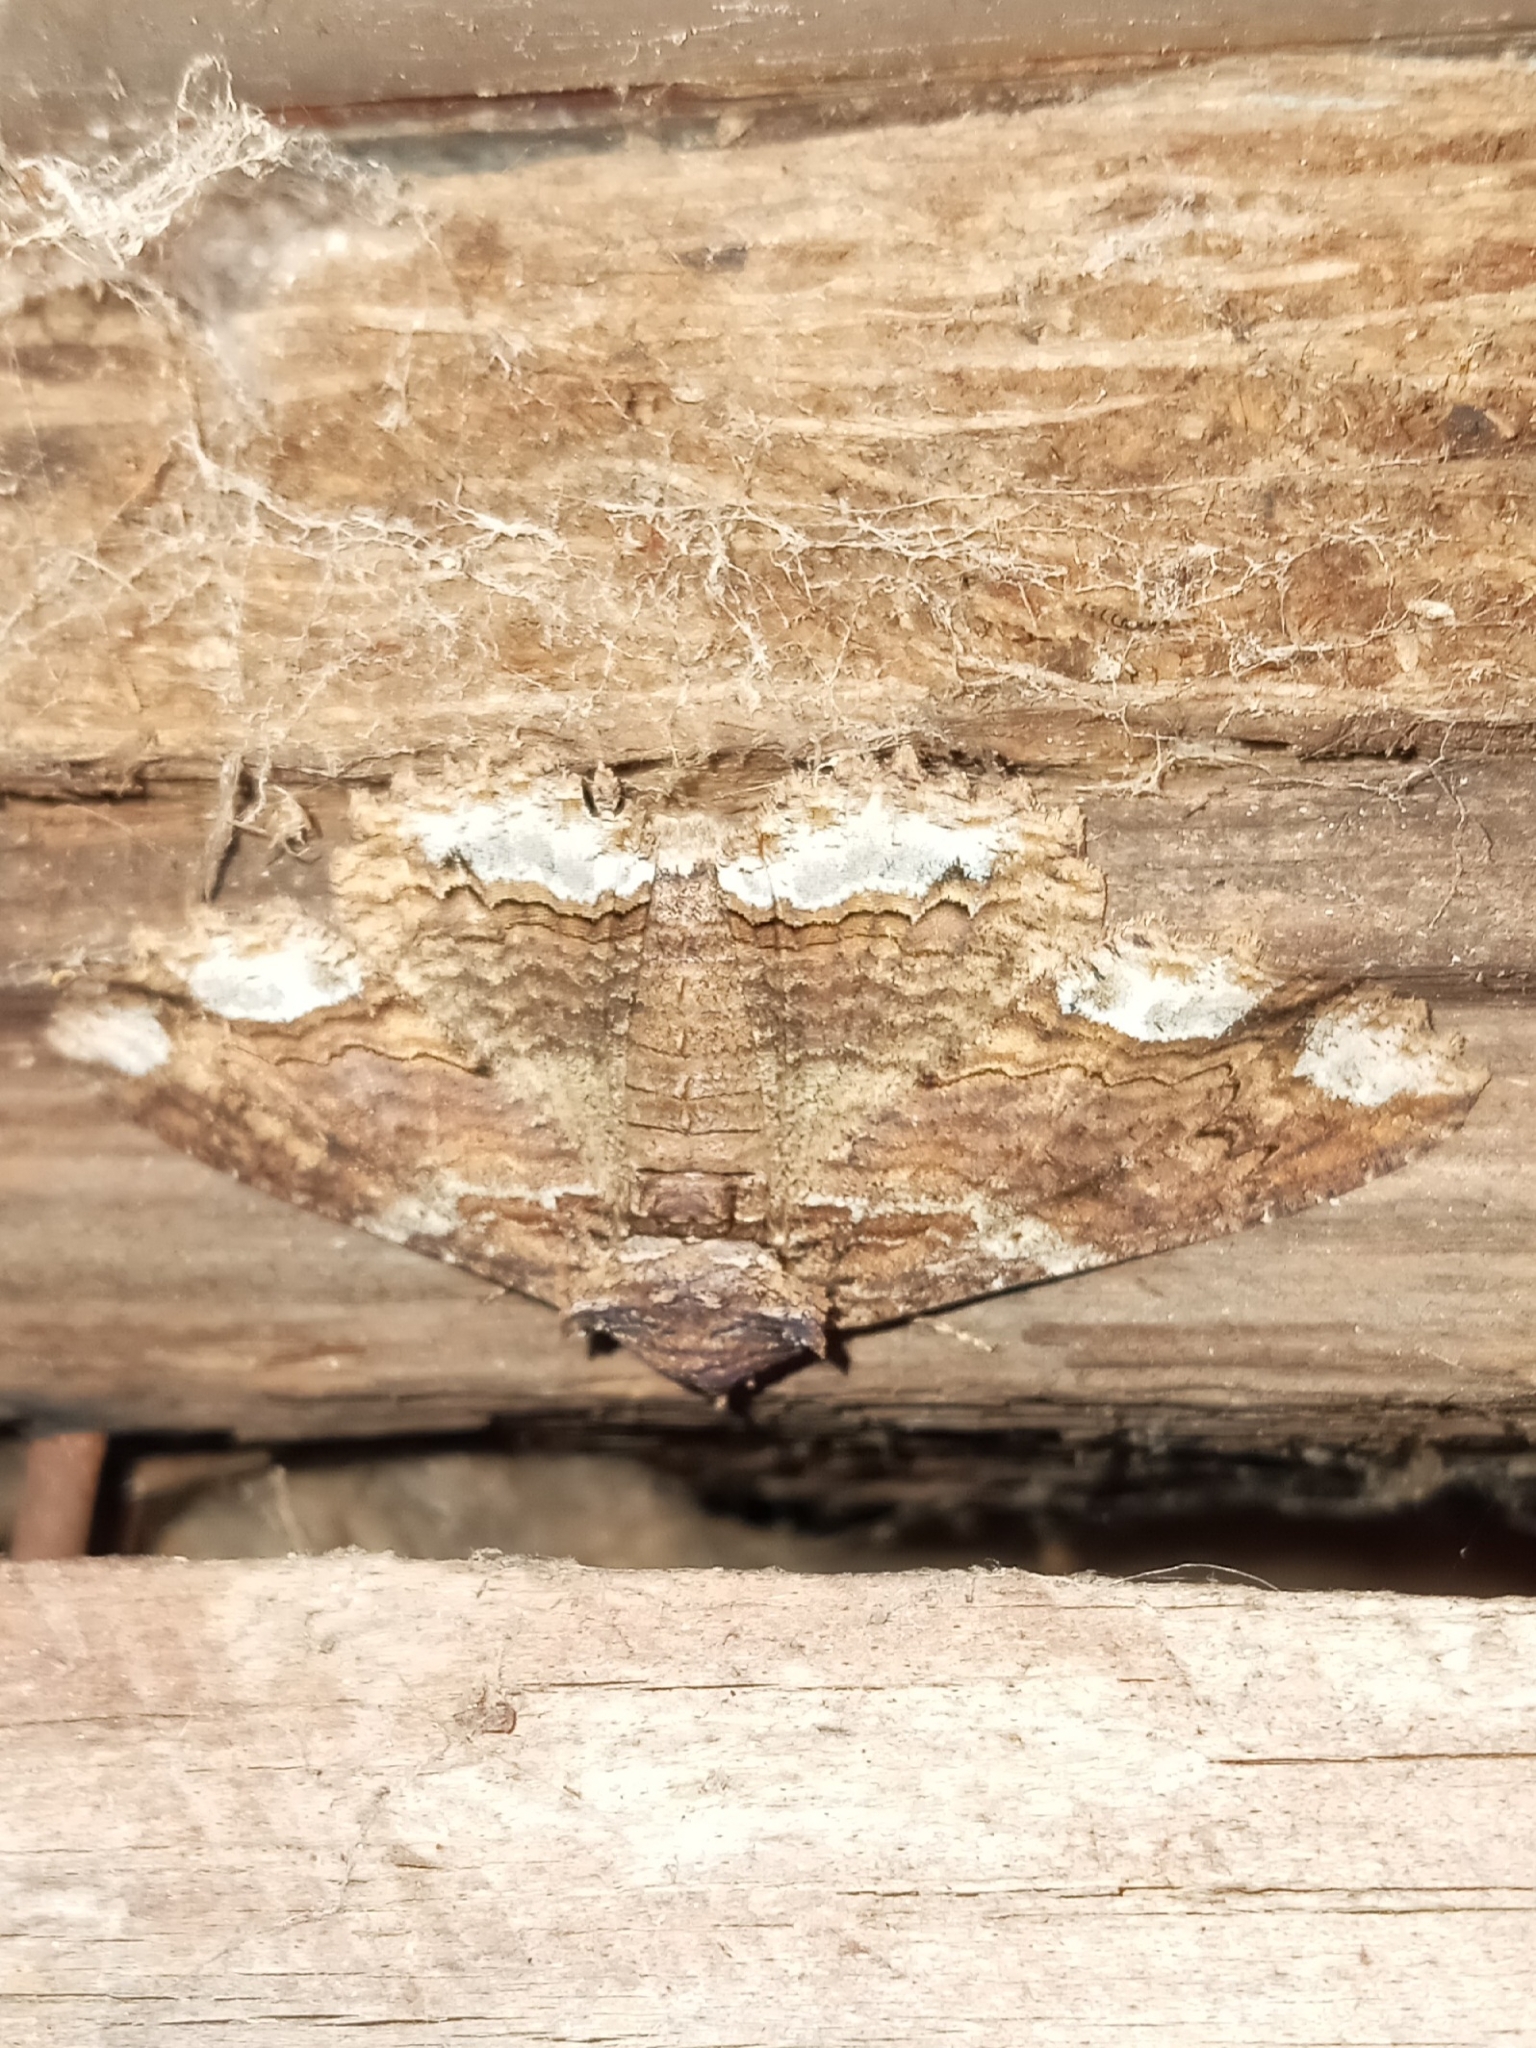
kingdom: Animalia
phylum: Arthropoda
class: Insecta
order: Lepidoptera
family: Erebidae
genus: Zale
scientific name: Zale lunata
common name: Lunate zale moth
